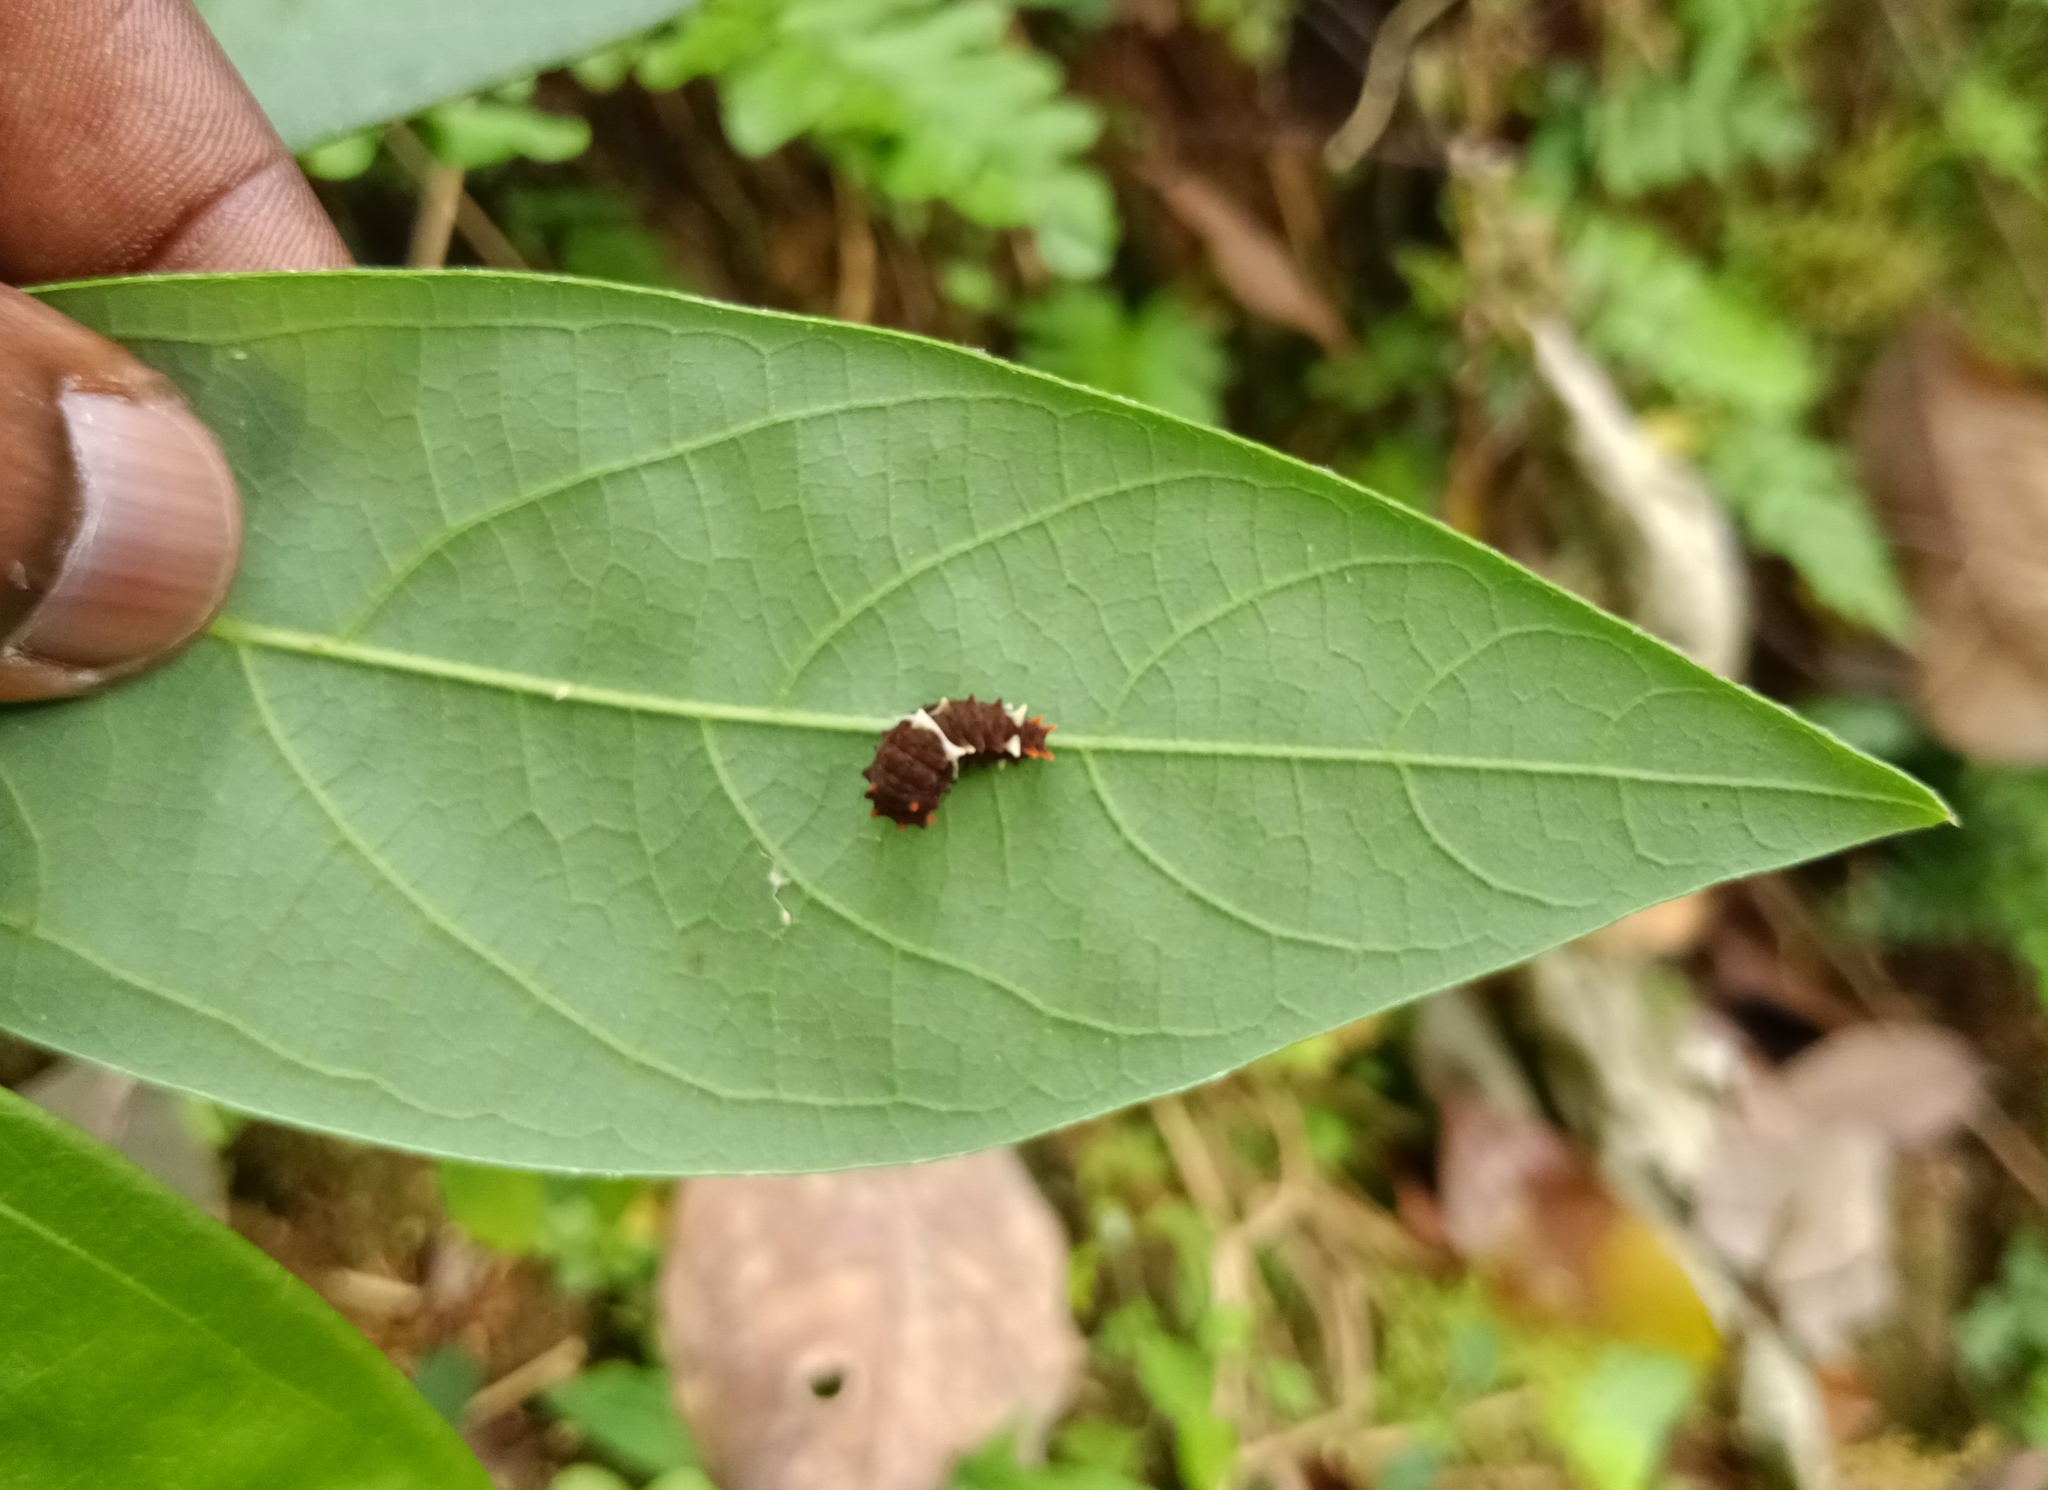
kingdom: Animalia
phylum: Arthropoda
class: Insecta
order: Lepidoptera
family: Papilionidae
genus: Pachliopta
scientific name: Pachliopta pandiyana
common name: Malabar rose
